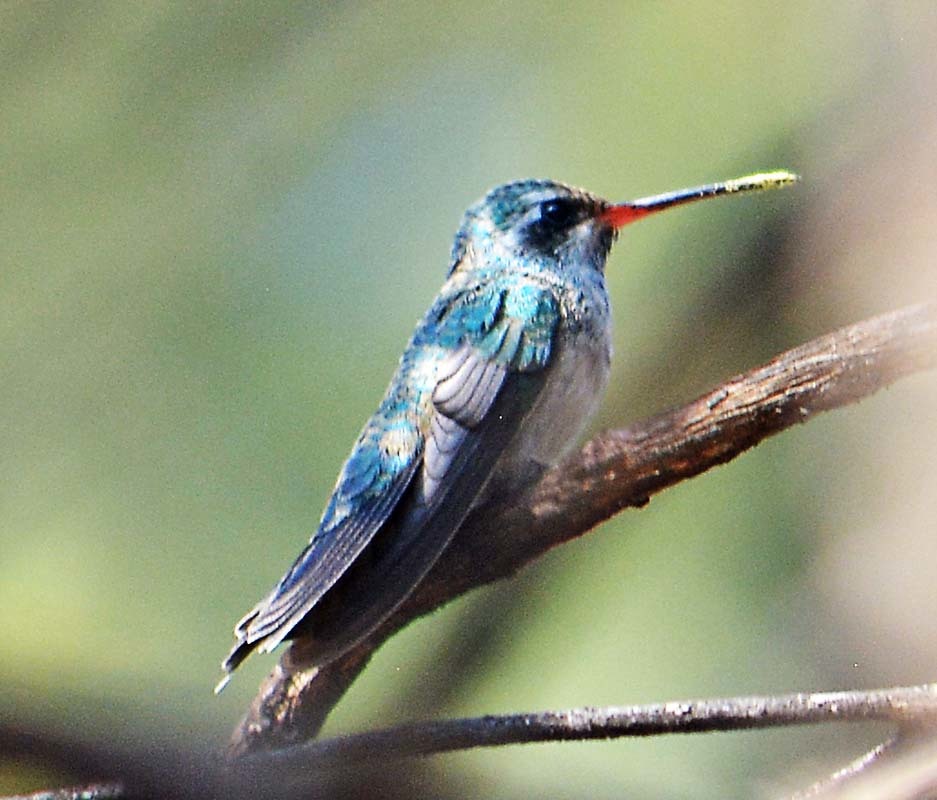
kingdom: Animalia
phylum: Chordata
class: Aves
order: Apodiformes
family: Trochilidae
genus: Cynanthus
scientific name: Cynanthus latirostris
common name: Broad-billed hummingbird
